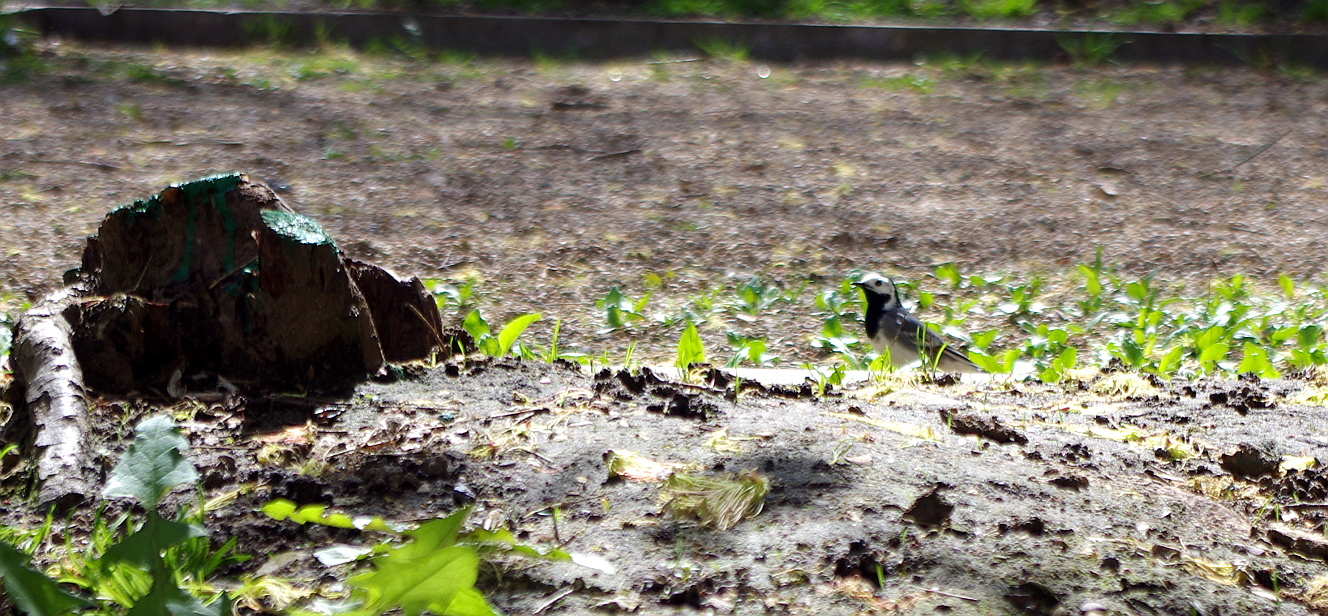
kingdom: Animalia
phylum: Chordata
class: Aves
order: Passeriformes
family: Motacillidae
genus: Motacilla
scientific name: Motacilla alba
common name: White wagtail
